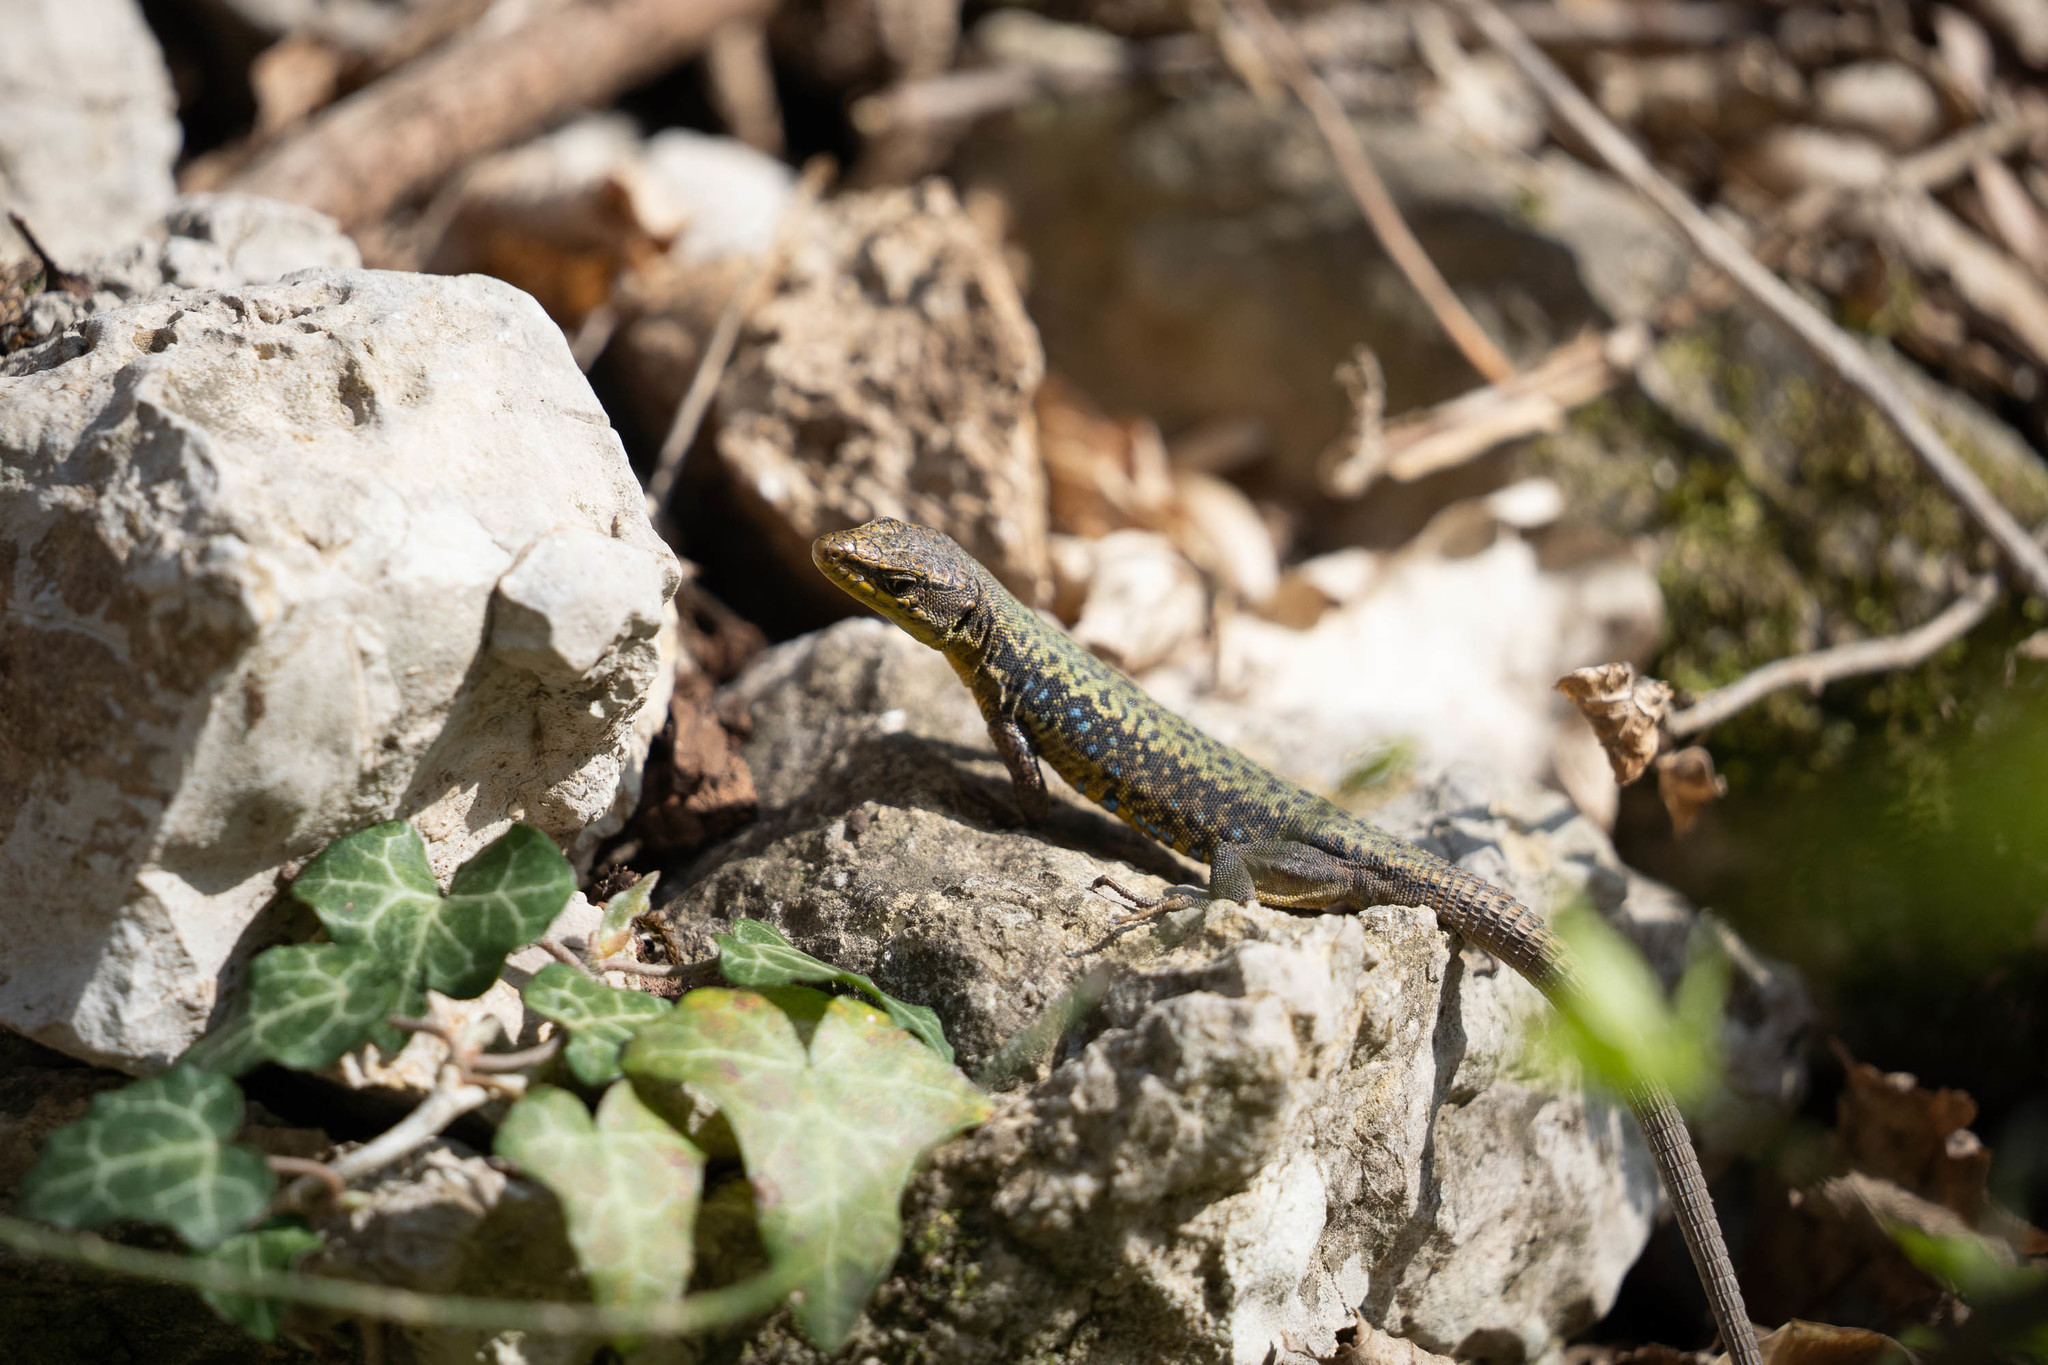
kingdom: Animalia
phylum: Chordata
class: Squamata
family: Lacertidae
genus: Darevskia
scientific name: Darevskia lindholmi
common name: Crimean rock lizard
